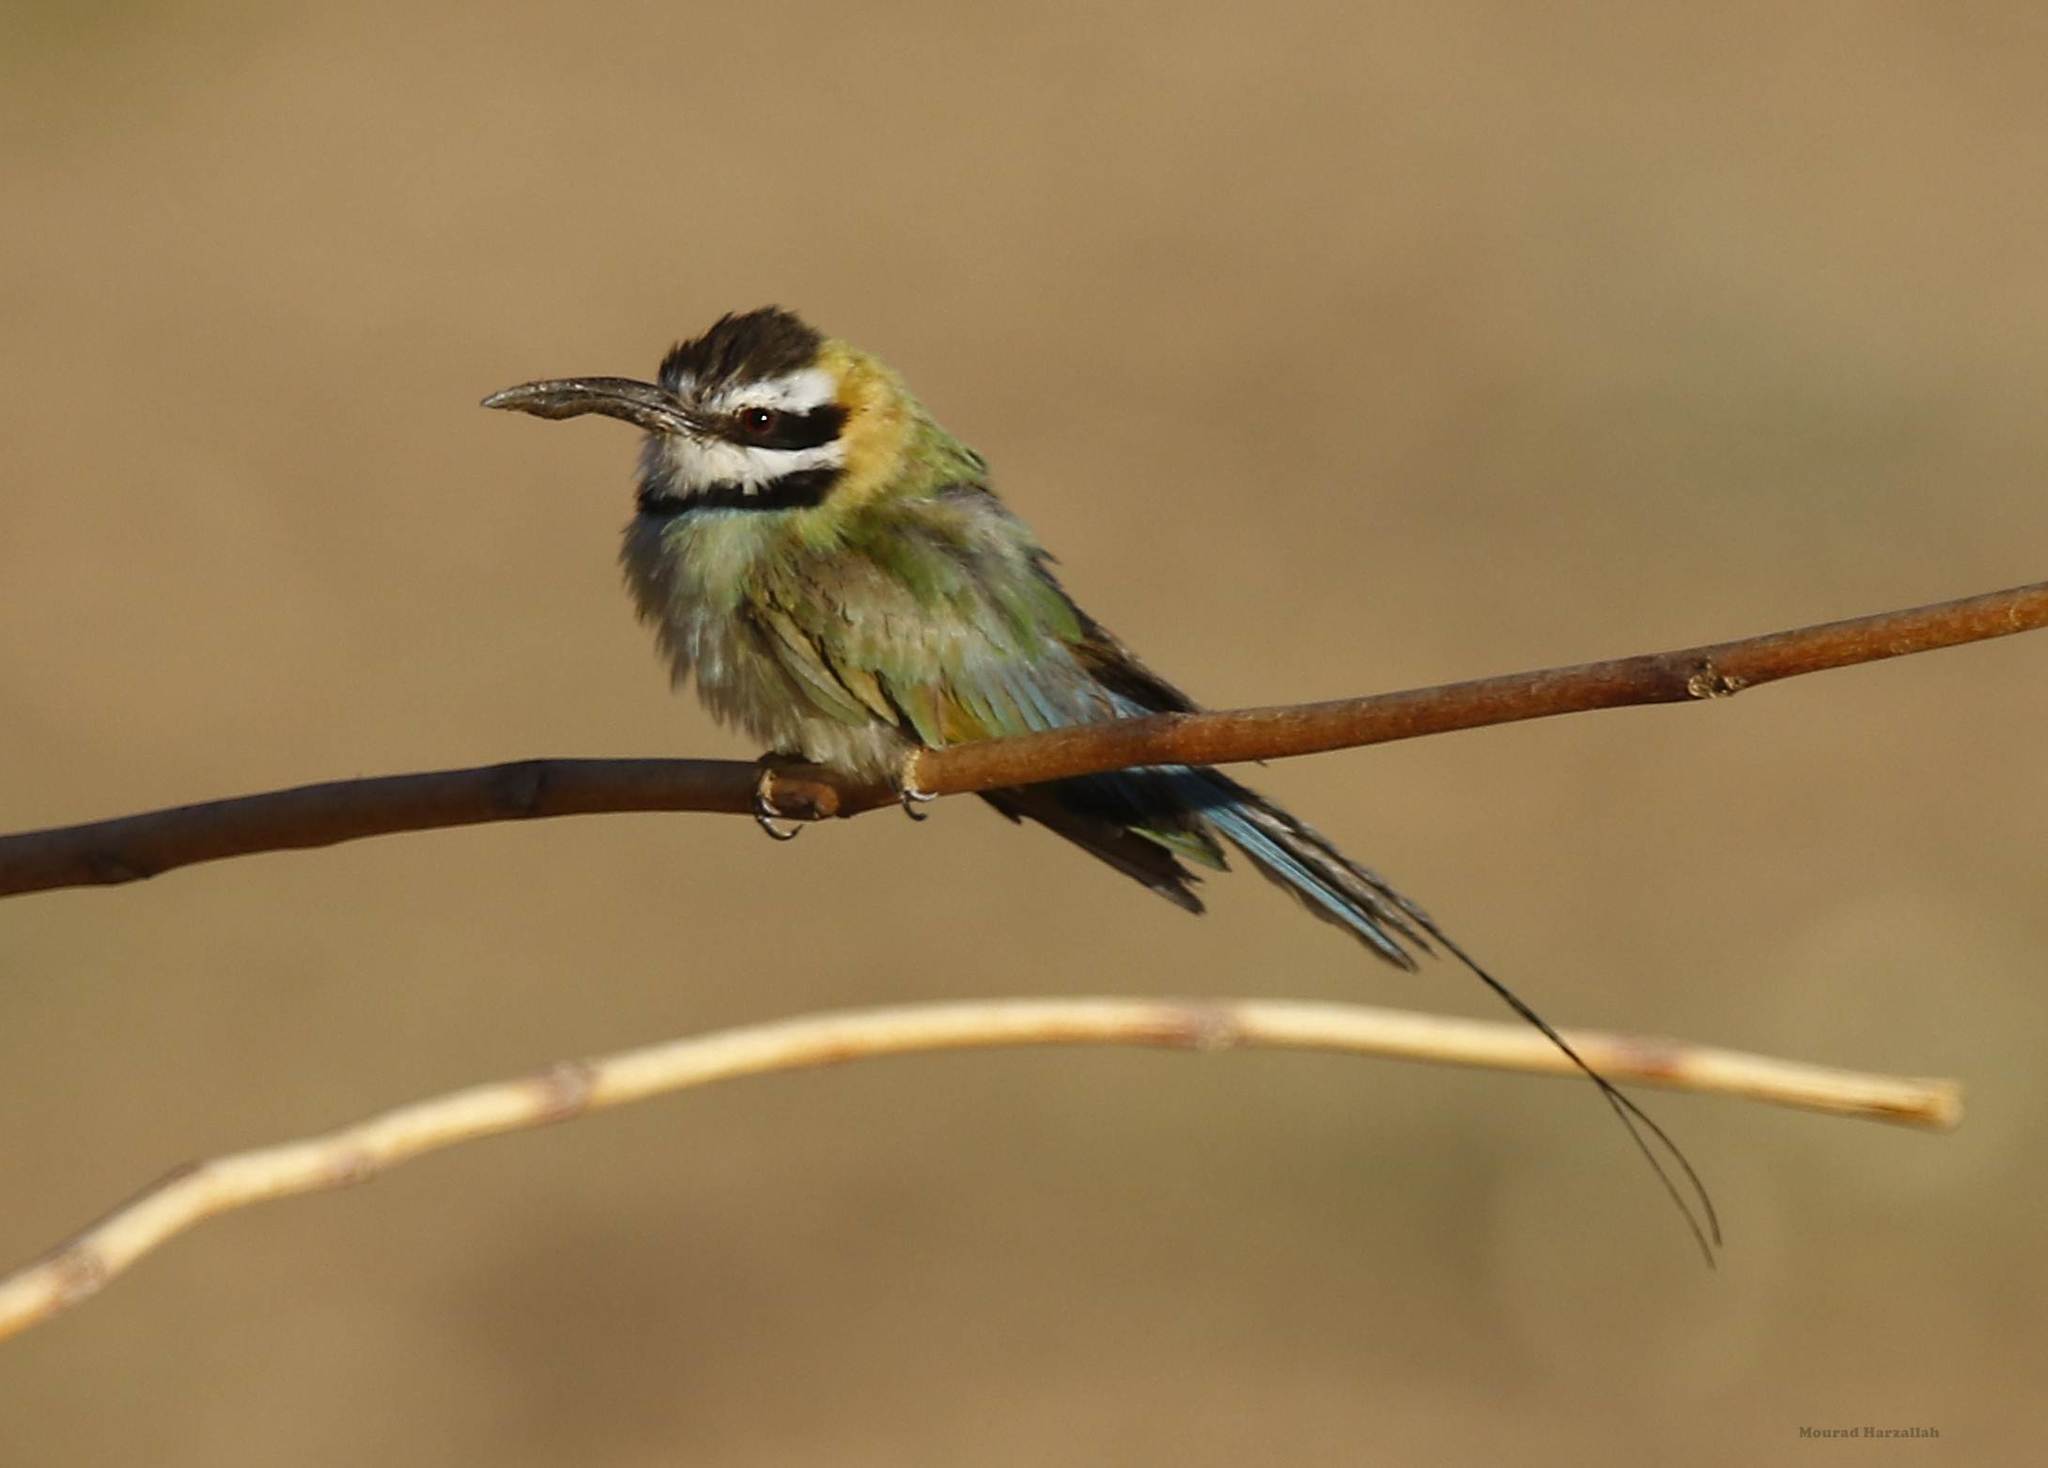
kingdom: Animalia
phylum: Chordata
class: Aves
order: Coraciiformes
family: Meropidae
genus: Merops
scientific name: Merops albicollis
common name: White-throated bee-eater
